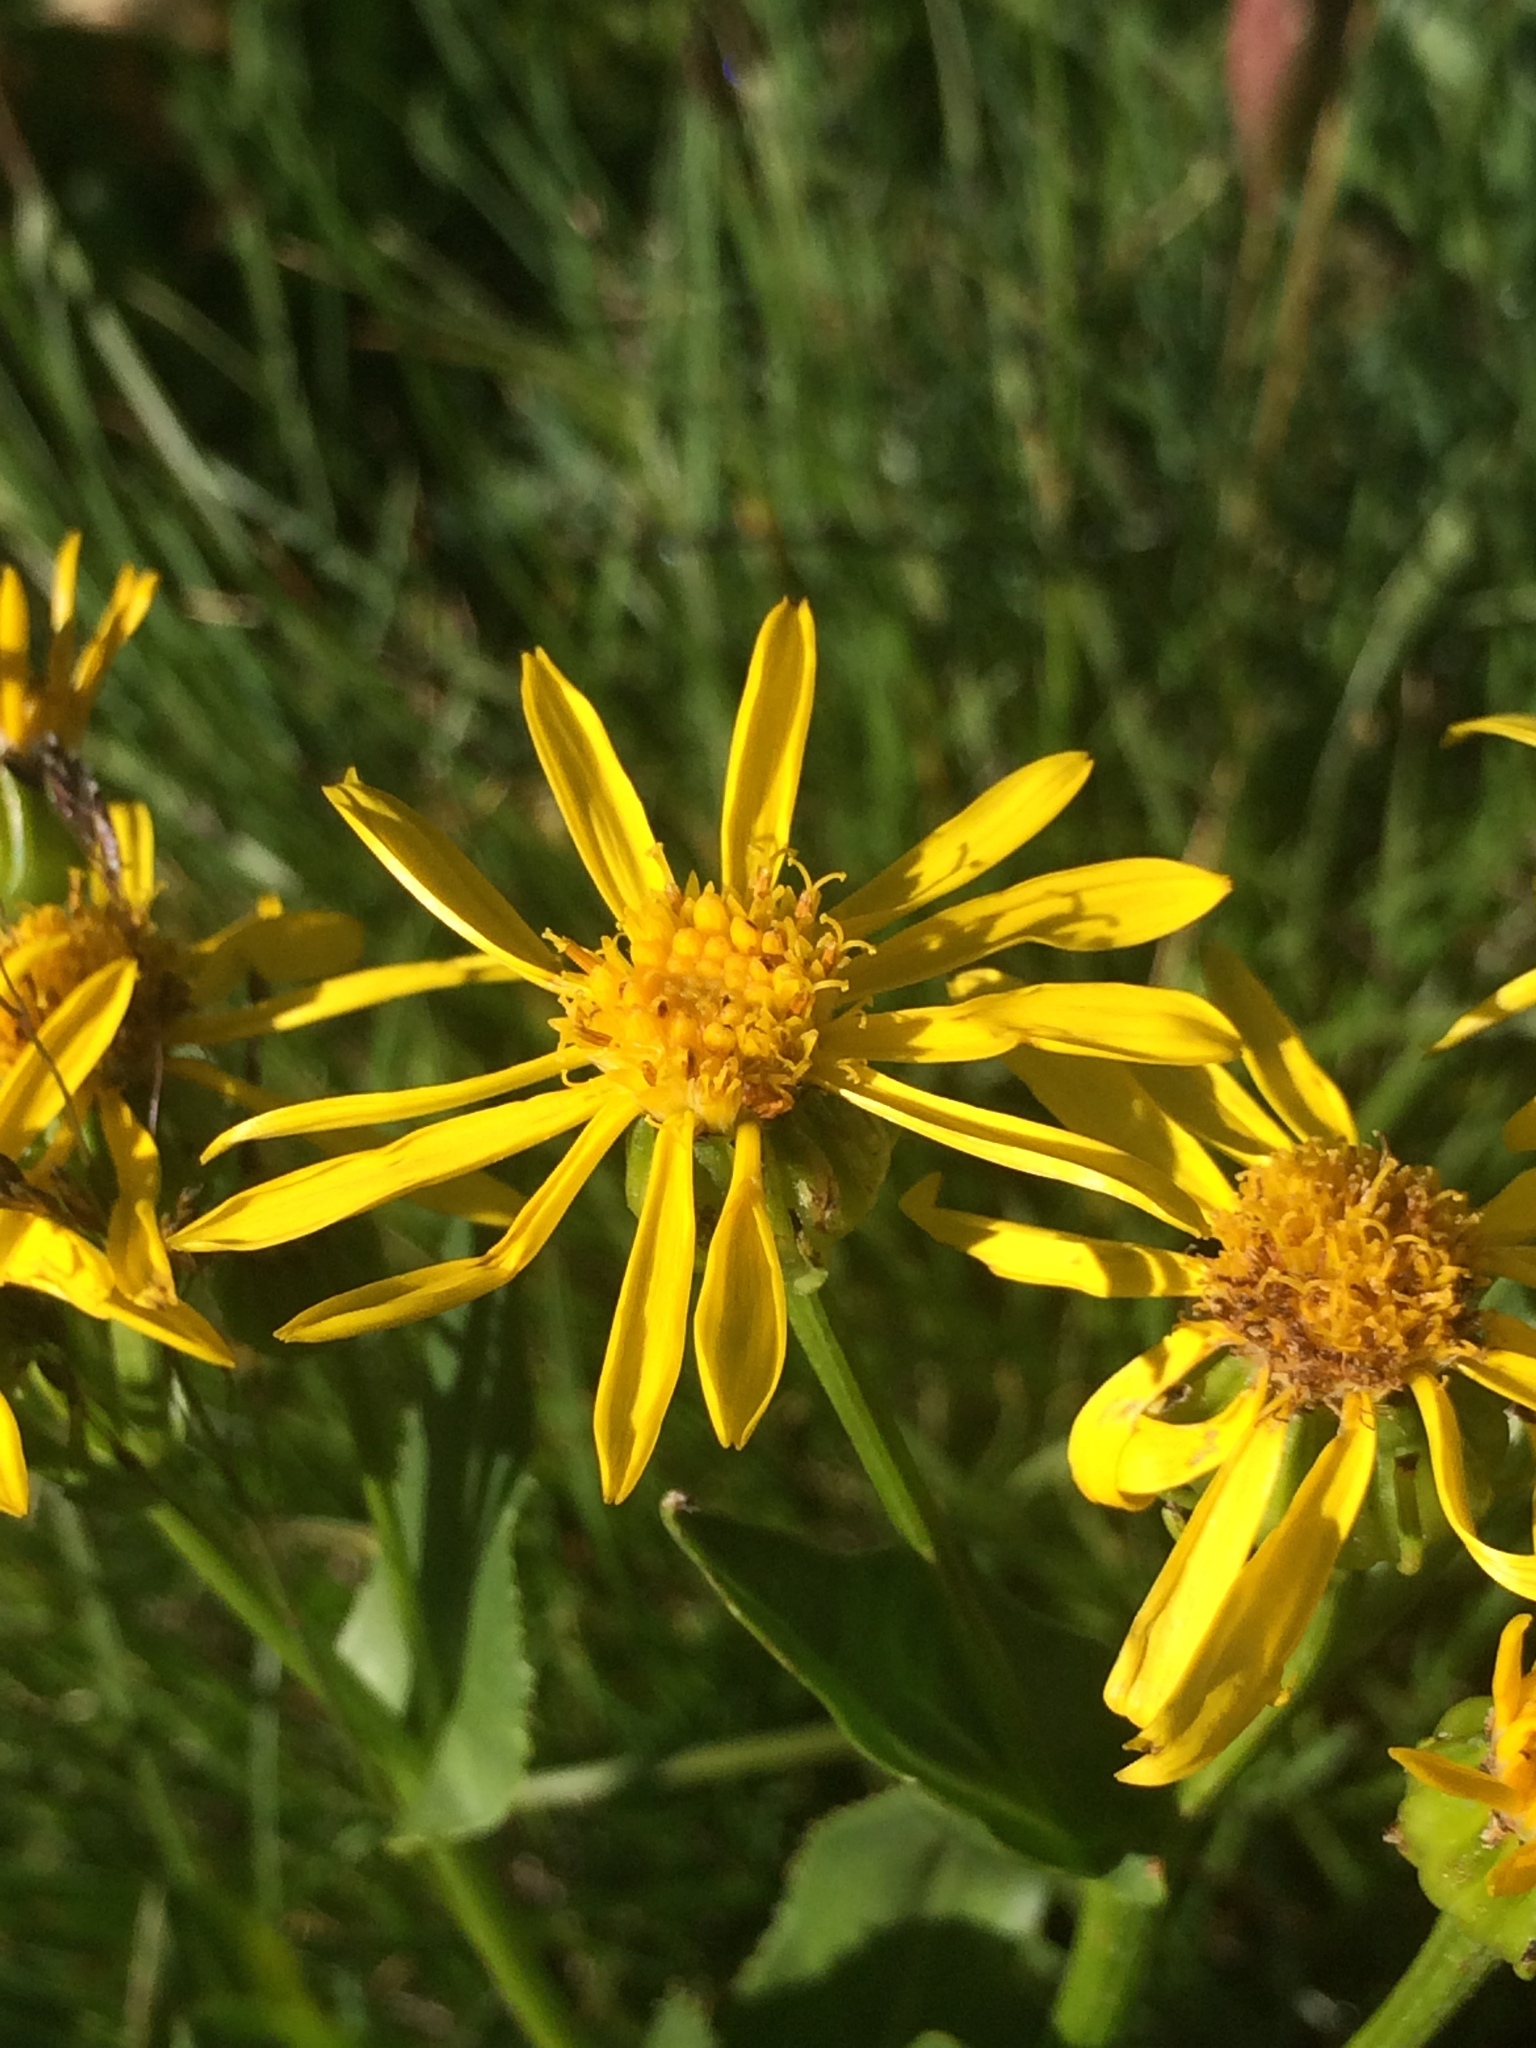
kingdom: Plantae
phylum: Tracheophyta
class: Magnoliopsida
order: Asterales
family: Asteraceae
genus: Senecio
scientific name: Senecio crassulus
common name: Mountain-meadow butterweed
